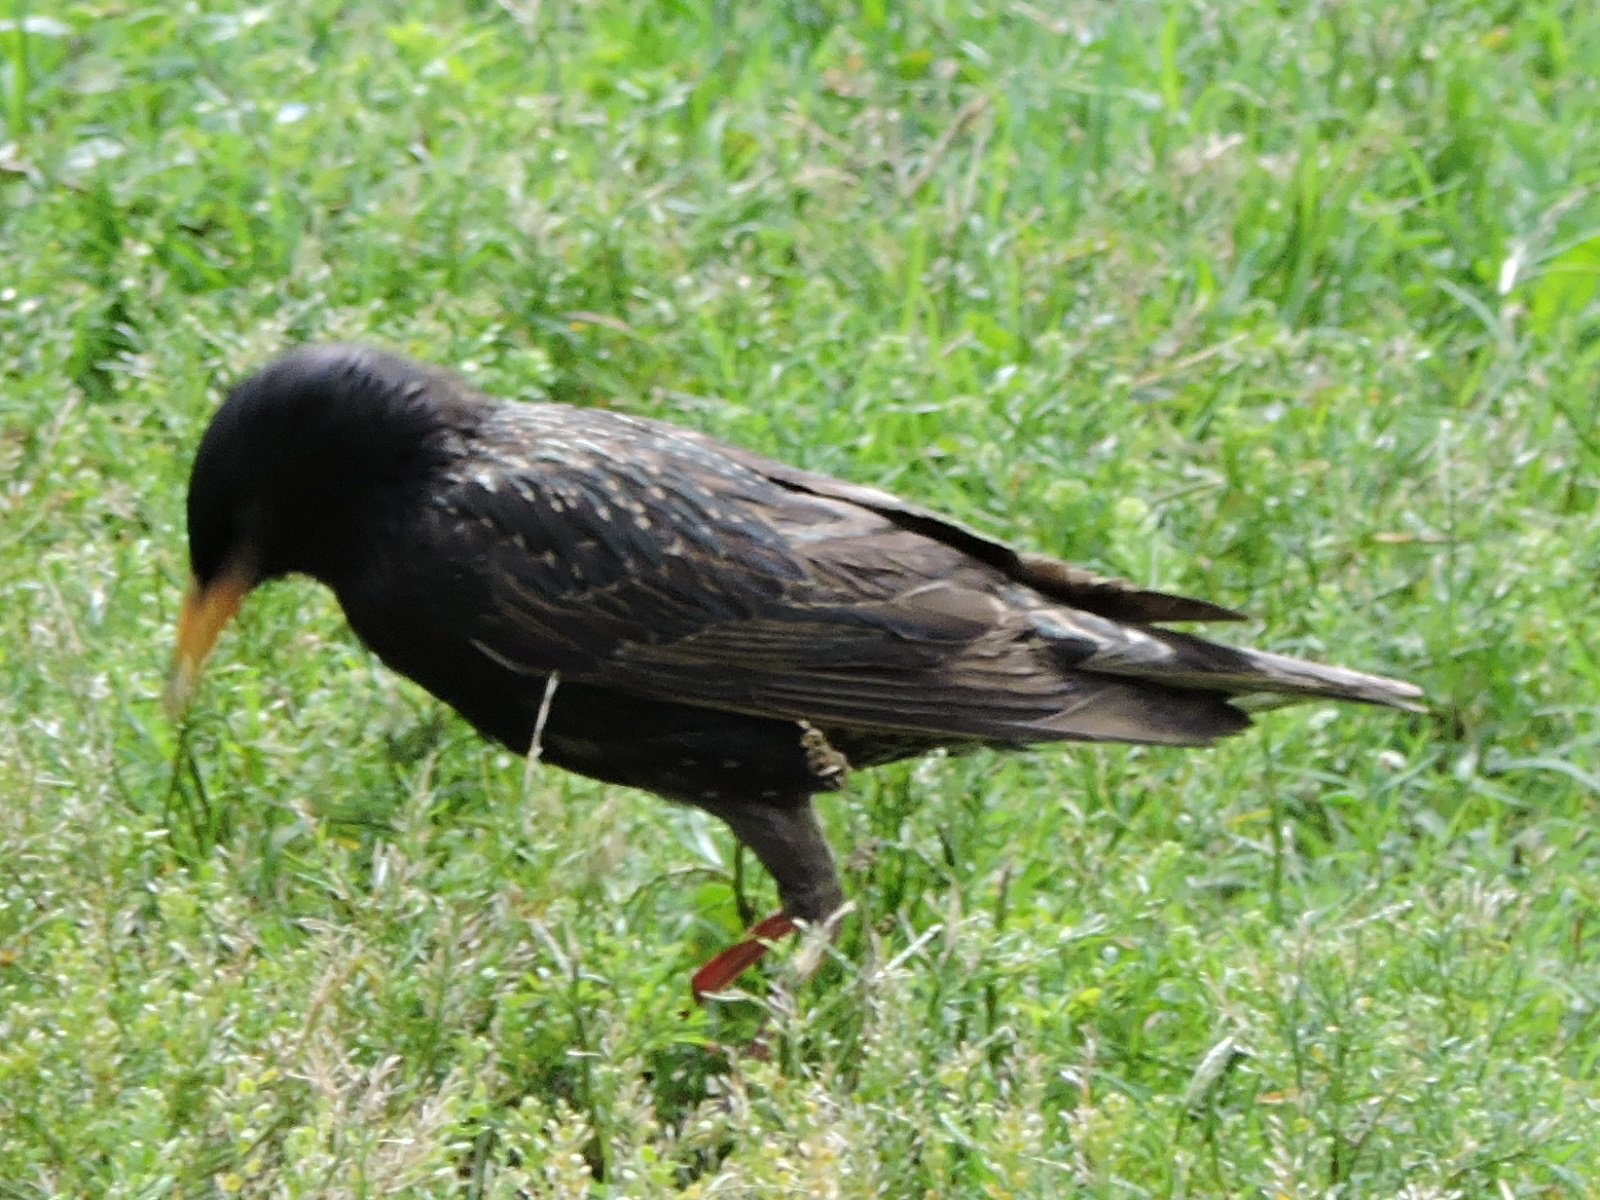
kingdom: Animalia
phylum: Chordata
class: Aves
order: Passeriformes
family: Sturnidae
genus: Sturnus
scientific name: Sturnus vulgaris
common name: Common starling
